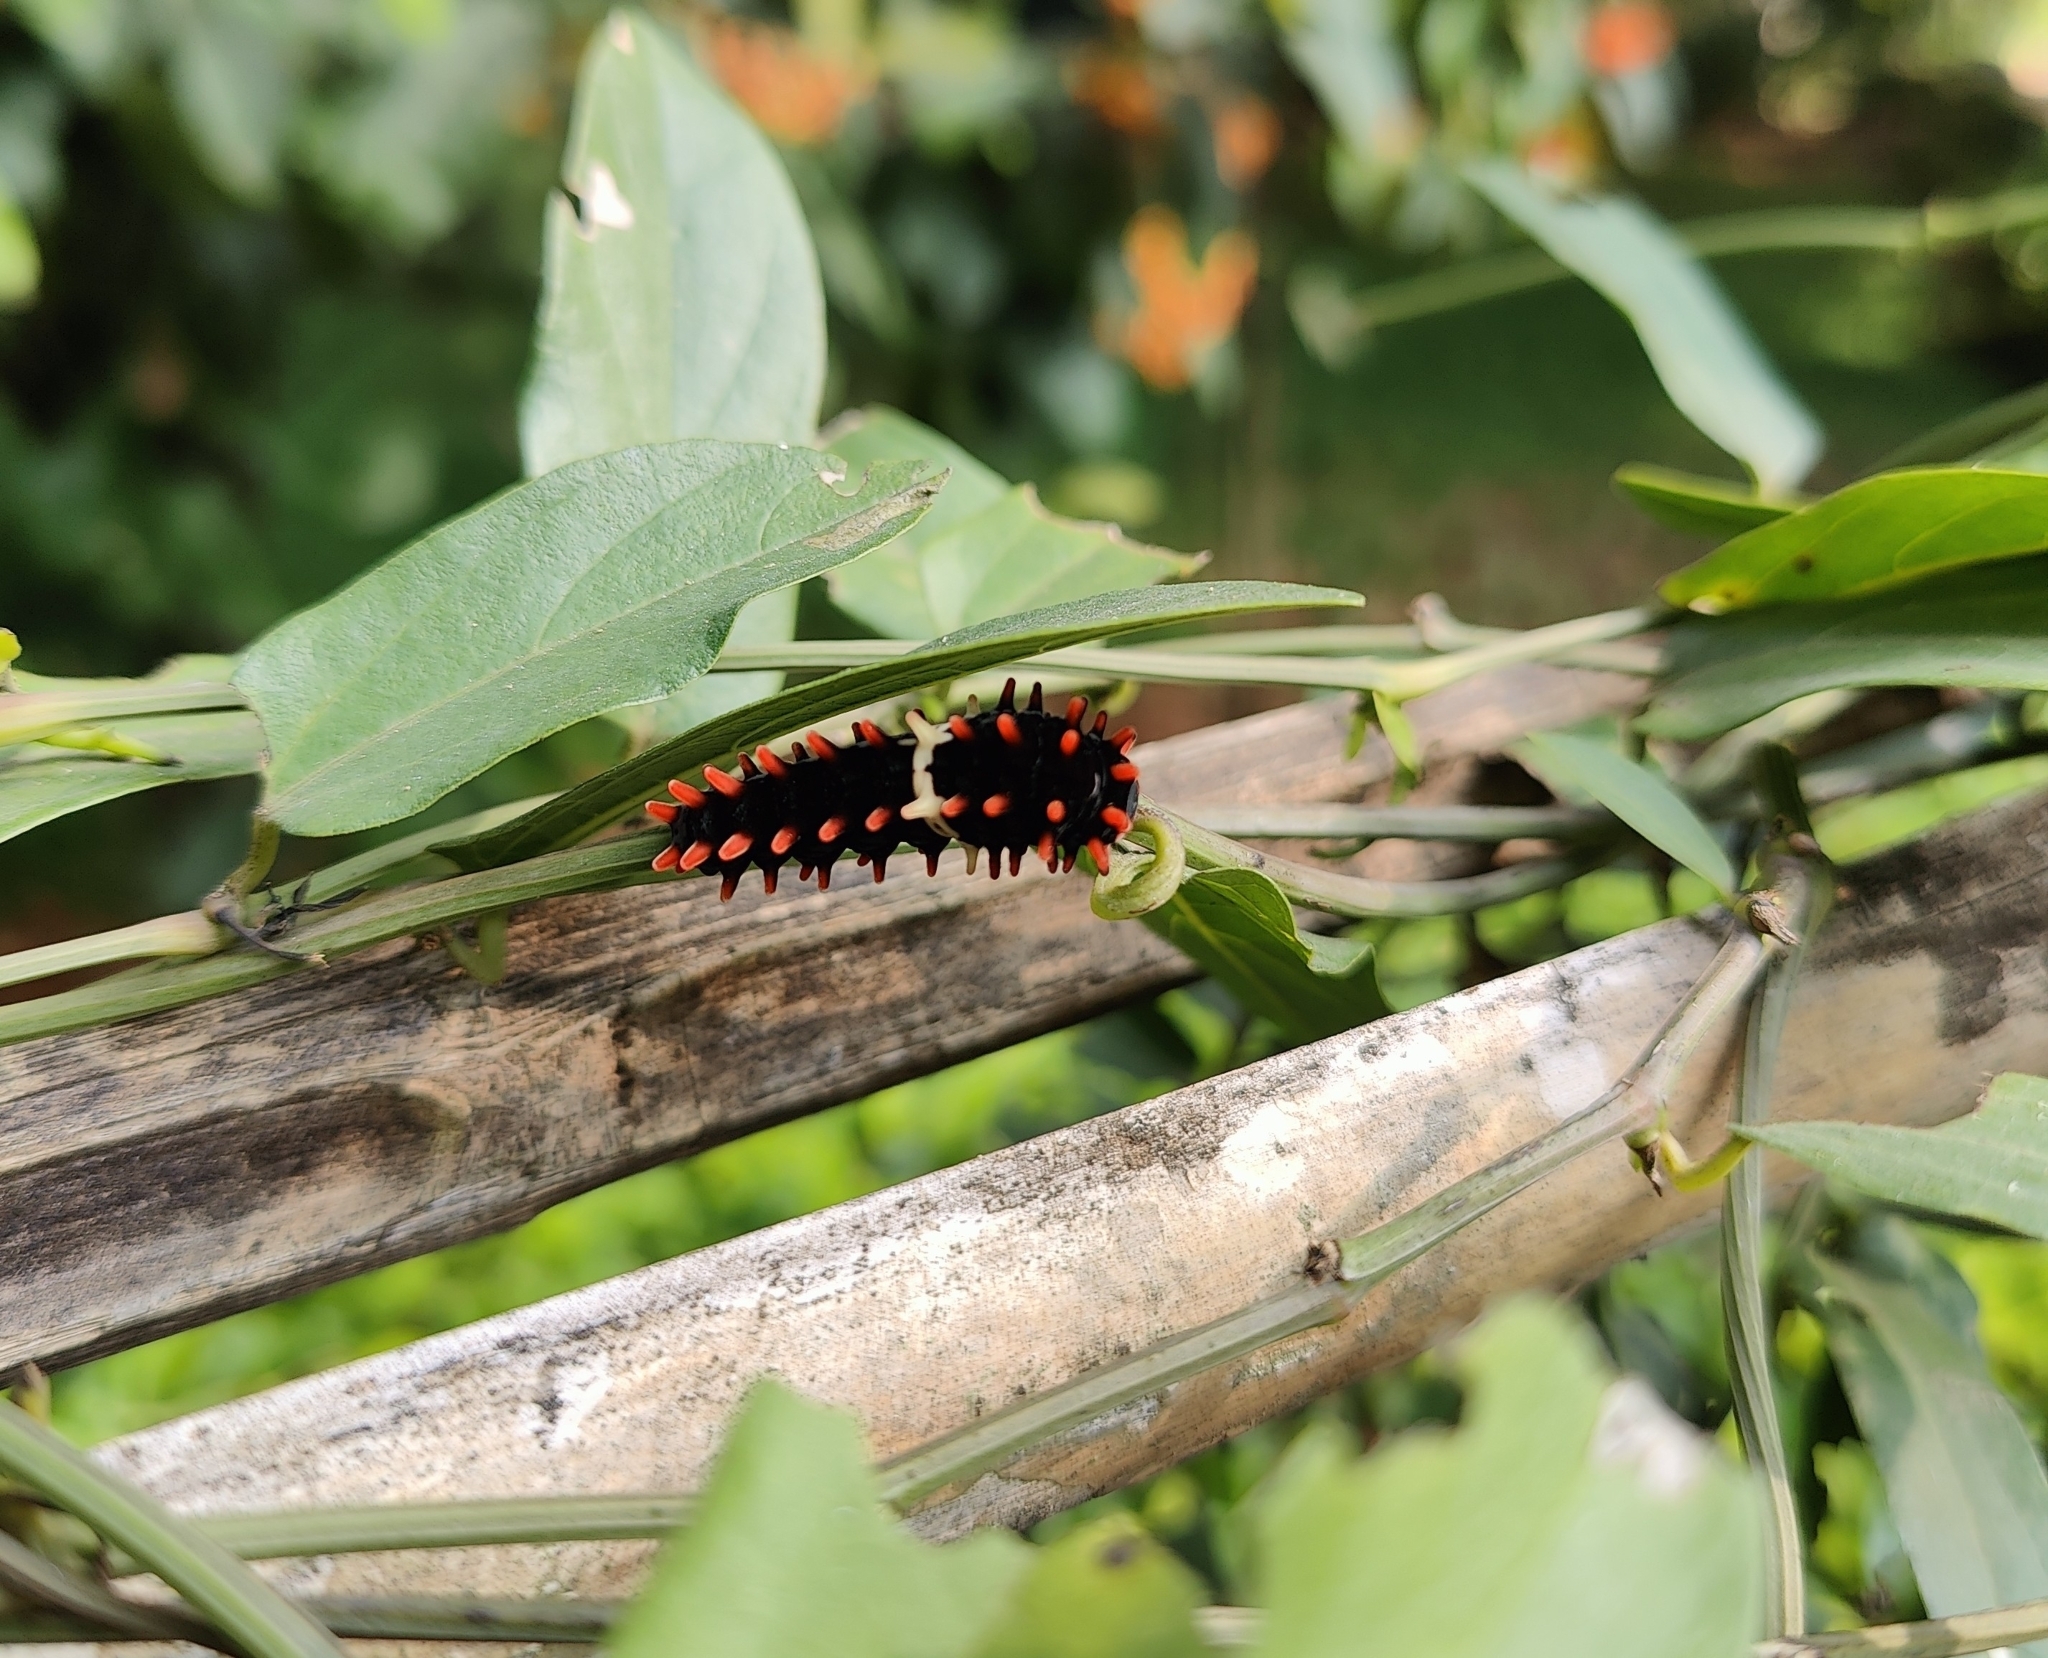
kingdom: Animalia
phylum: Arthropoda
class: Insecta
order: Lepidoptera
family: Papilionidae
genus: Pachliopta
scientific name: Pachliopta aristolochiae
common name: Common rose
